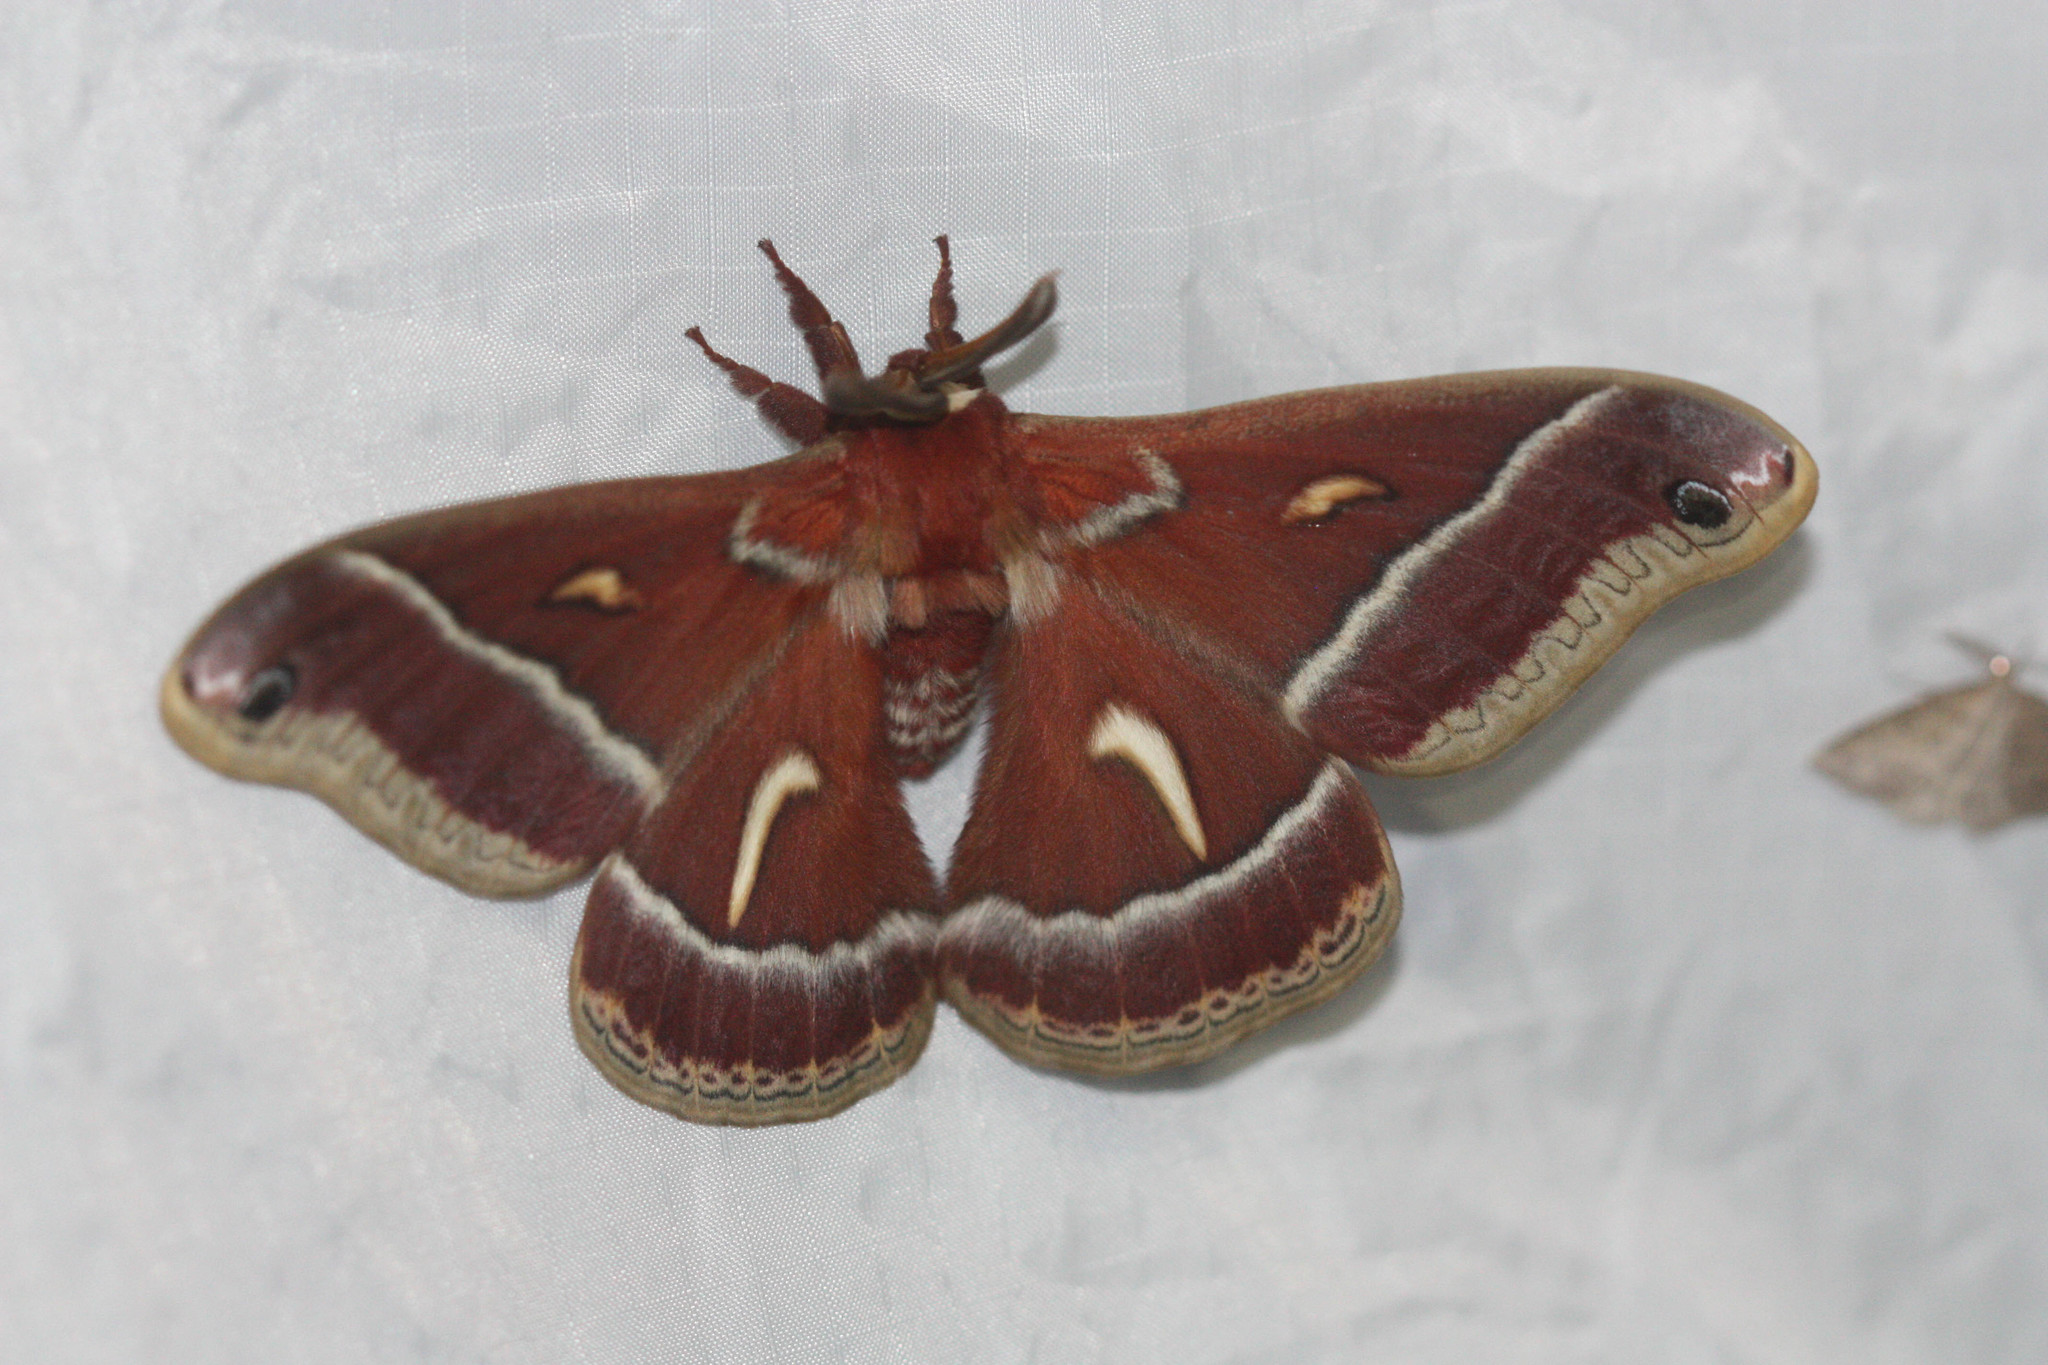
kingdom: Animalia
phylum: Arthropoda
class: Insecta
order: Lepidoptera
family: Saturniidae
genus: Hyalophora
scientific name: Hyalophora euryalus
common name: Ceanothus silkmoth
